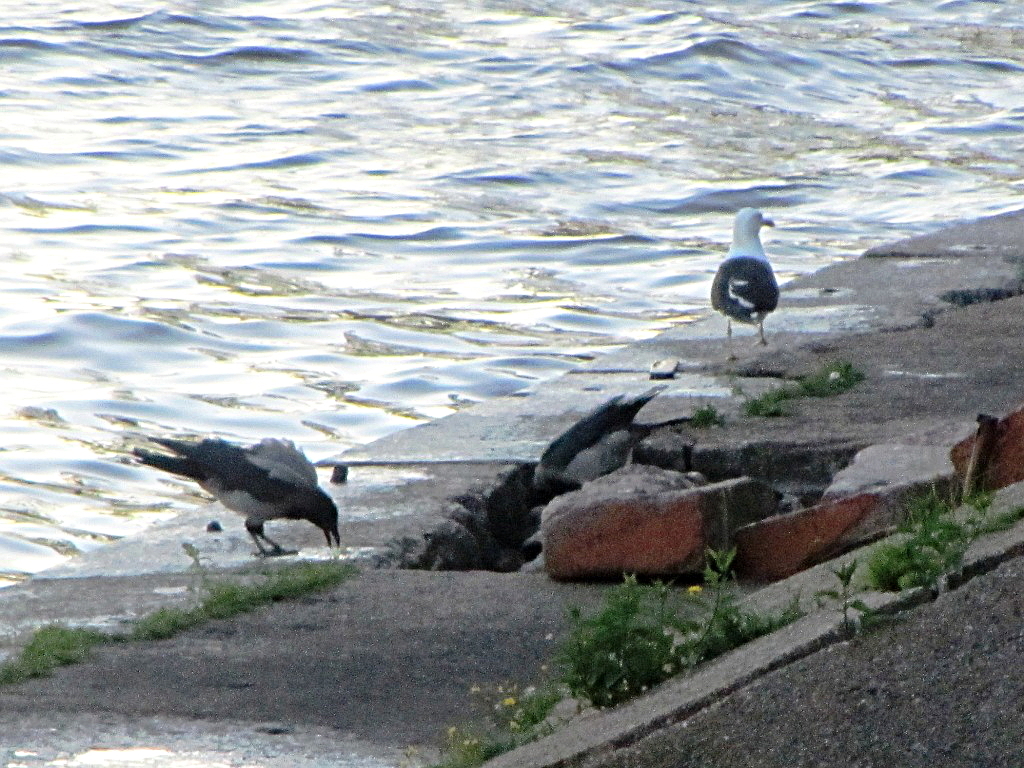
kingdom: Animalia
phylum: Chordata
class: Aves
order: Charadriiformes
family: Laridae
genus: Larus
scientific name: Larus fuscus
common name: Lesser black-backed gull
